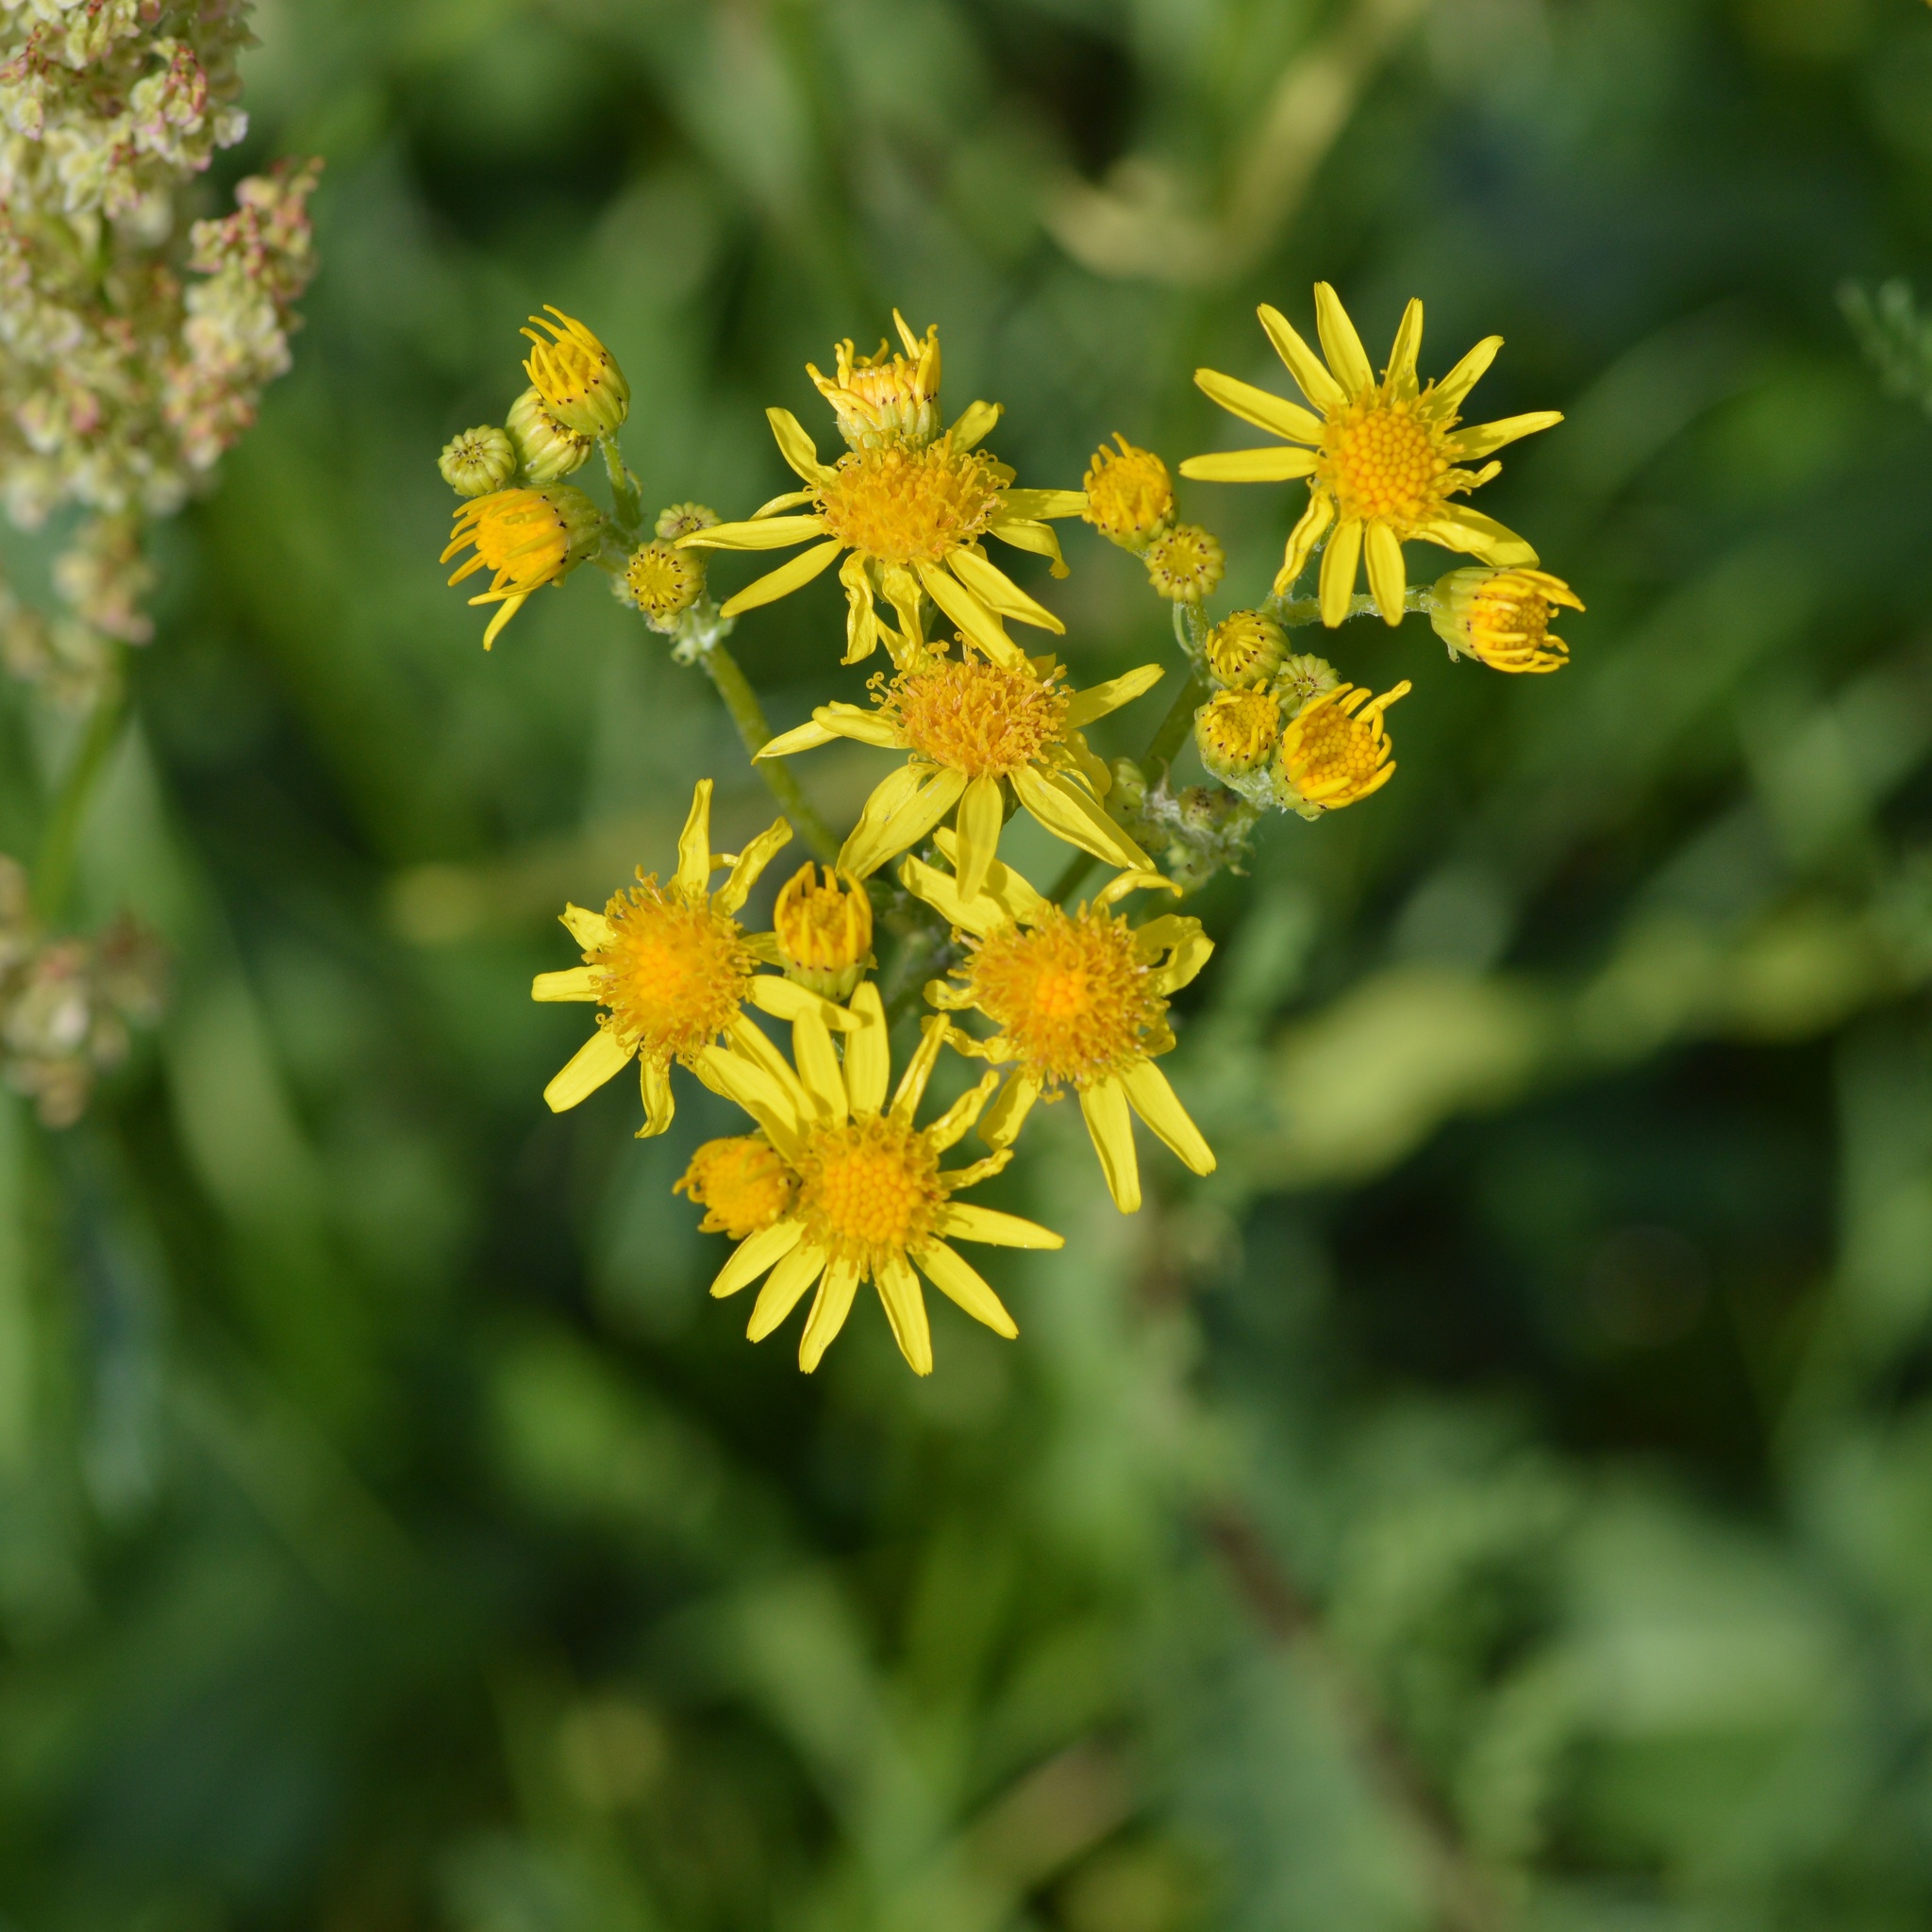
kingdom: Plantae
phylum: Tracheophyta
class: Magnoliopsida
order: Asterales
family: Asteraceae
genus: Jacobaea
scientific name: Jacobaea vulgaris
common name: Stinking willie
